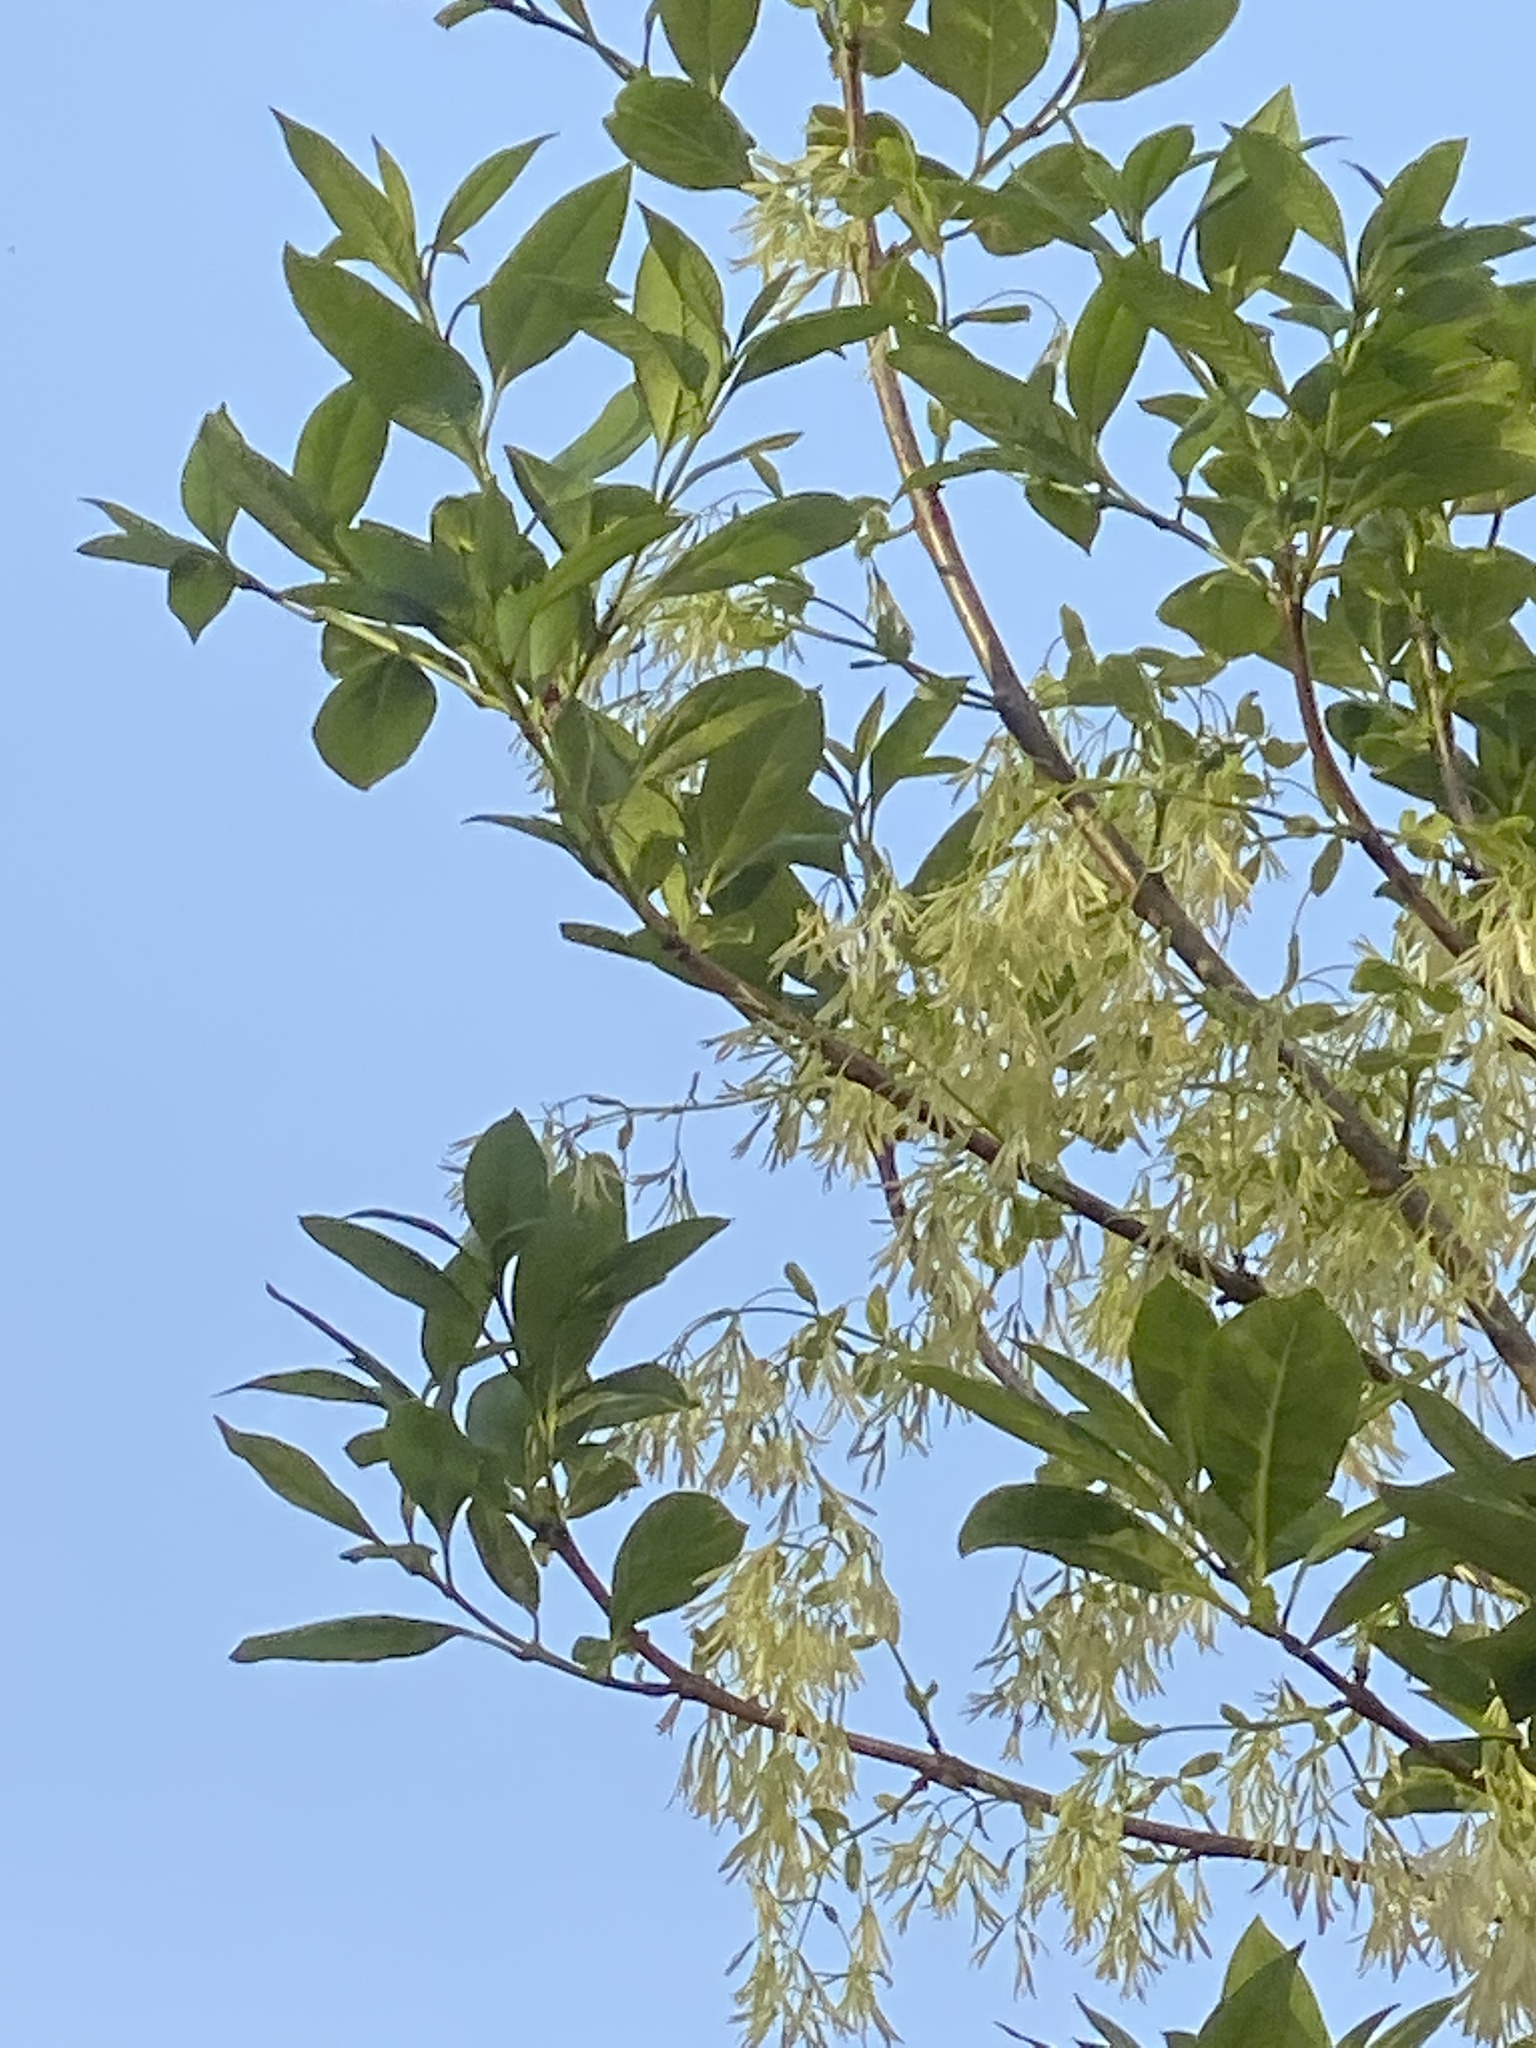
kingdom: Plantae
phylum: Tracheophyta
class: Magnoliopsida
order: Lamiales
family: Oleaceae
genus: Chionanthus
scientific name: Chionanthus virginicus
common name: American fringetree
